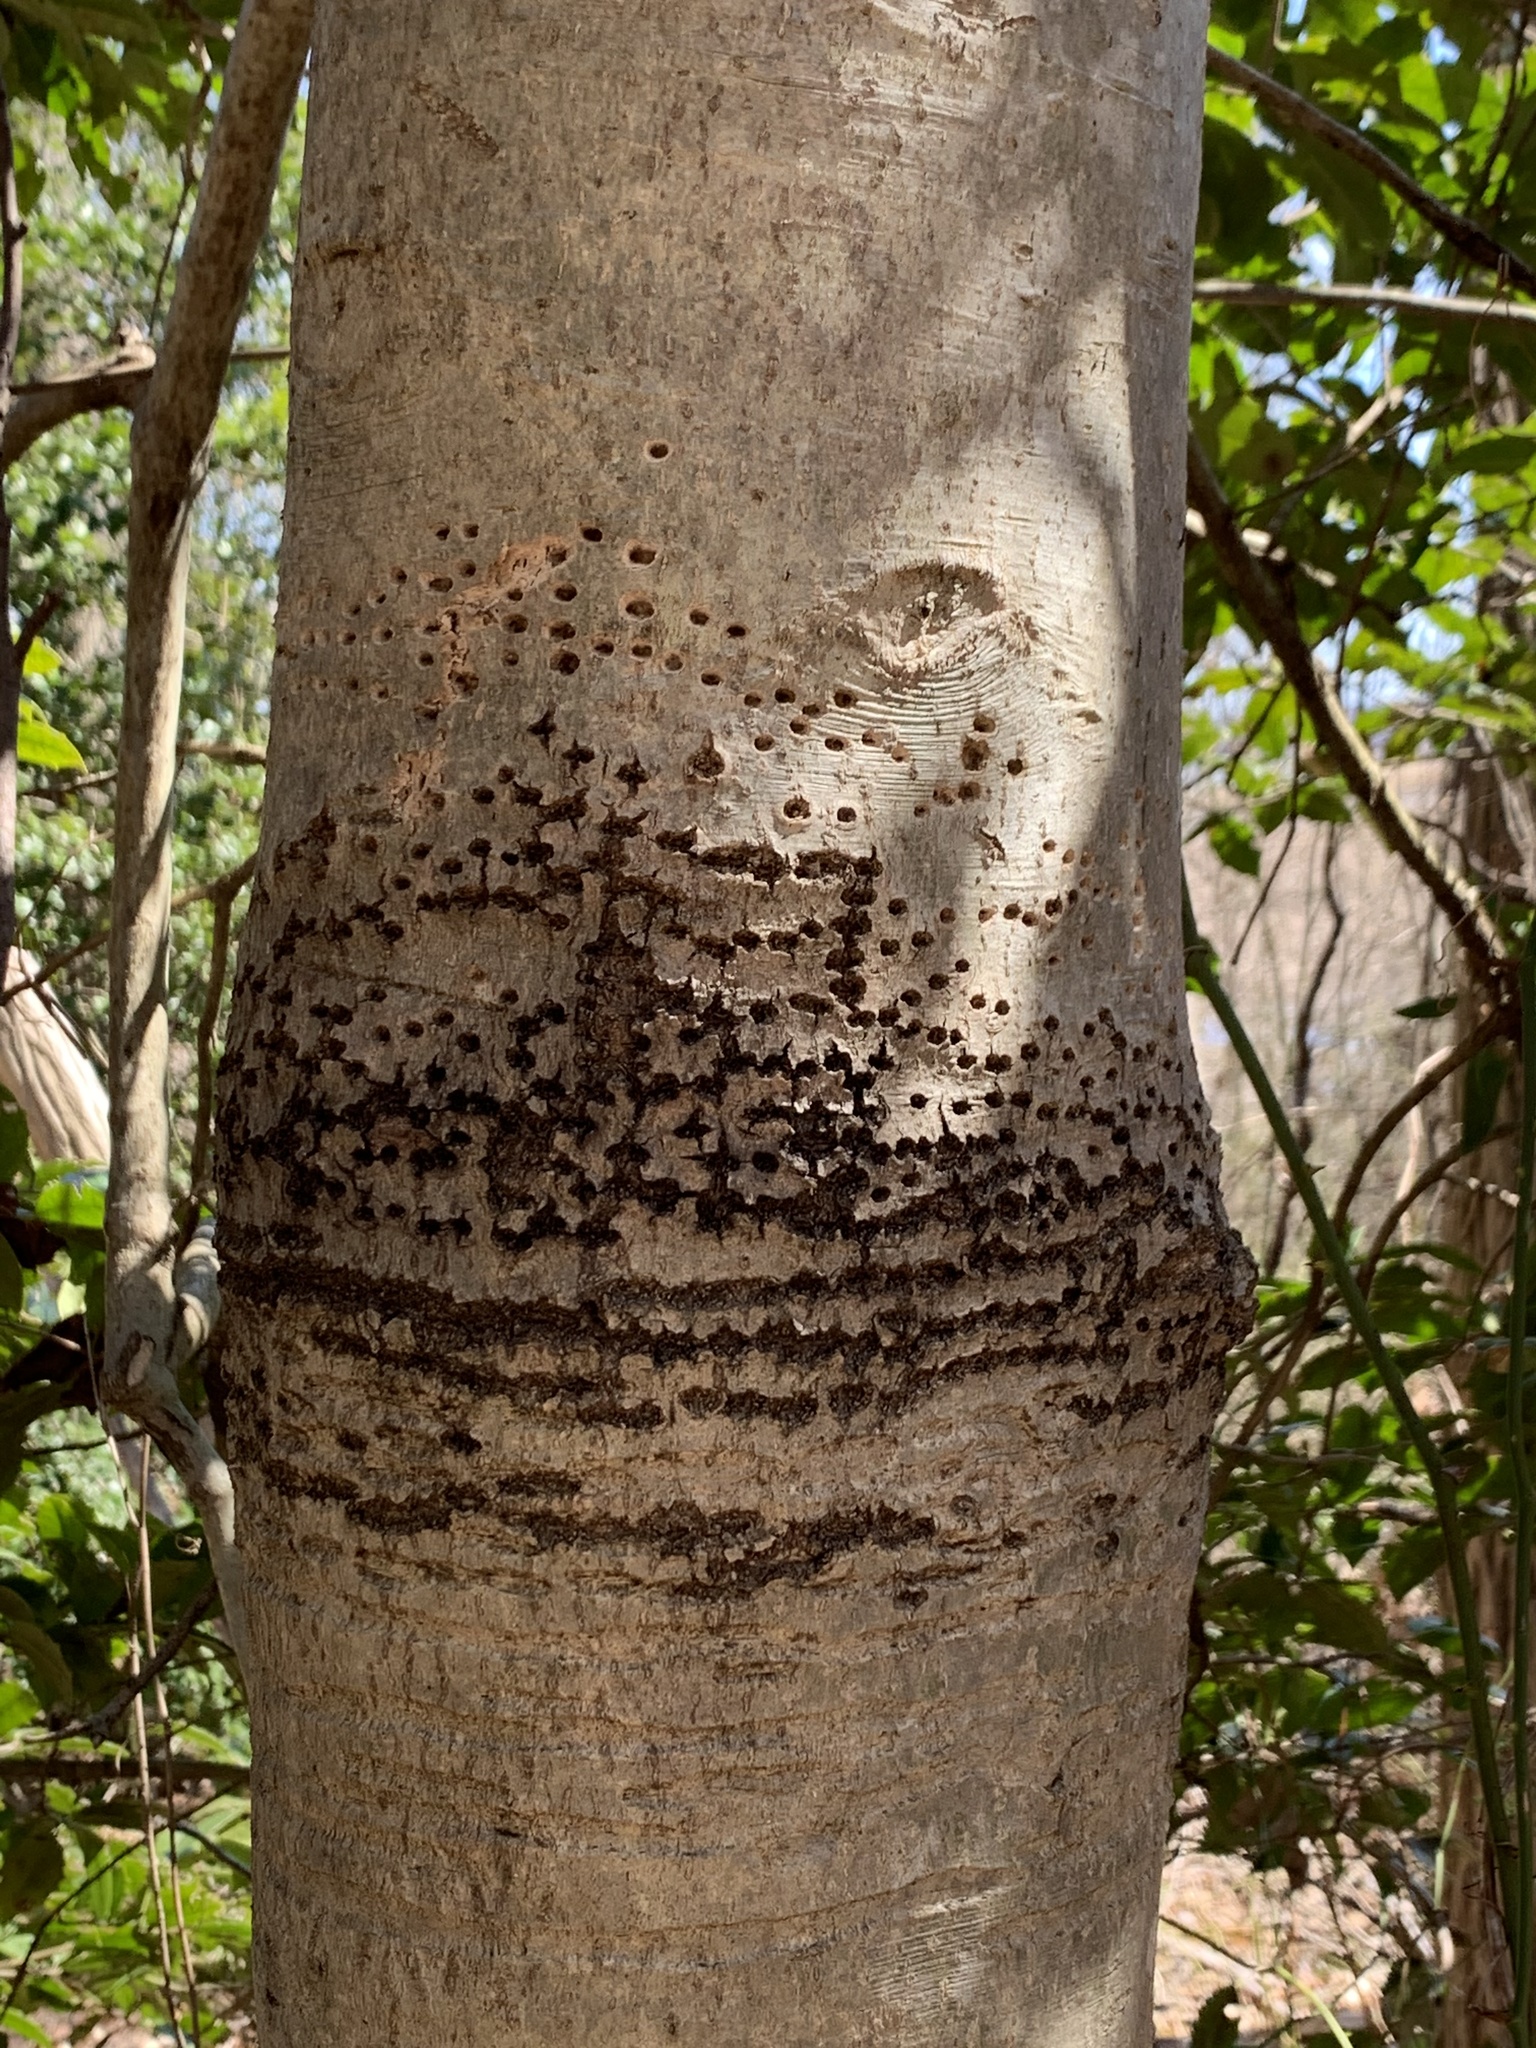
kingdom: Animalia
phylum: Chordata
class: Aves
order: Piciformes
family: Picidae
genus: Sphyrapicus
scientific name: Sphyrapicus varius
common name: Yellow-bellied sapsucker
